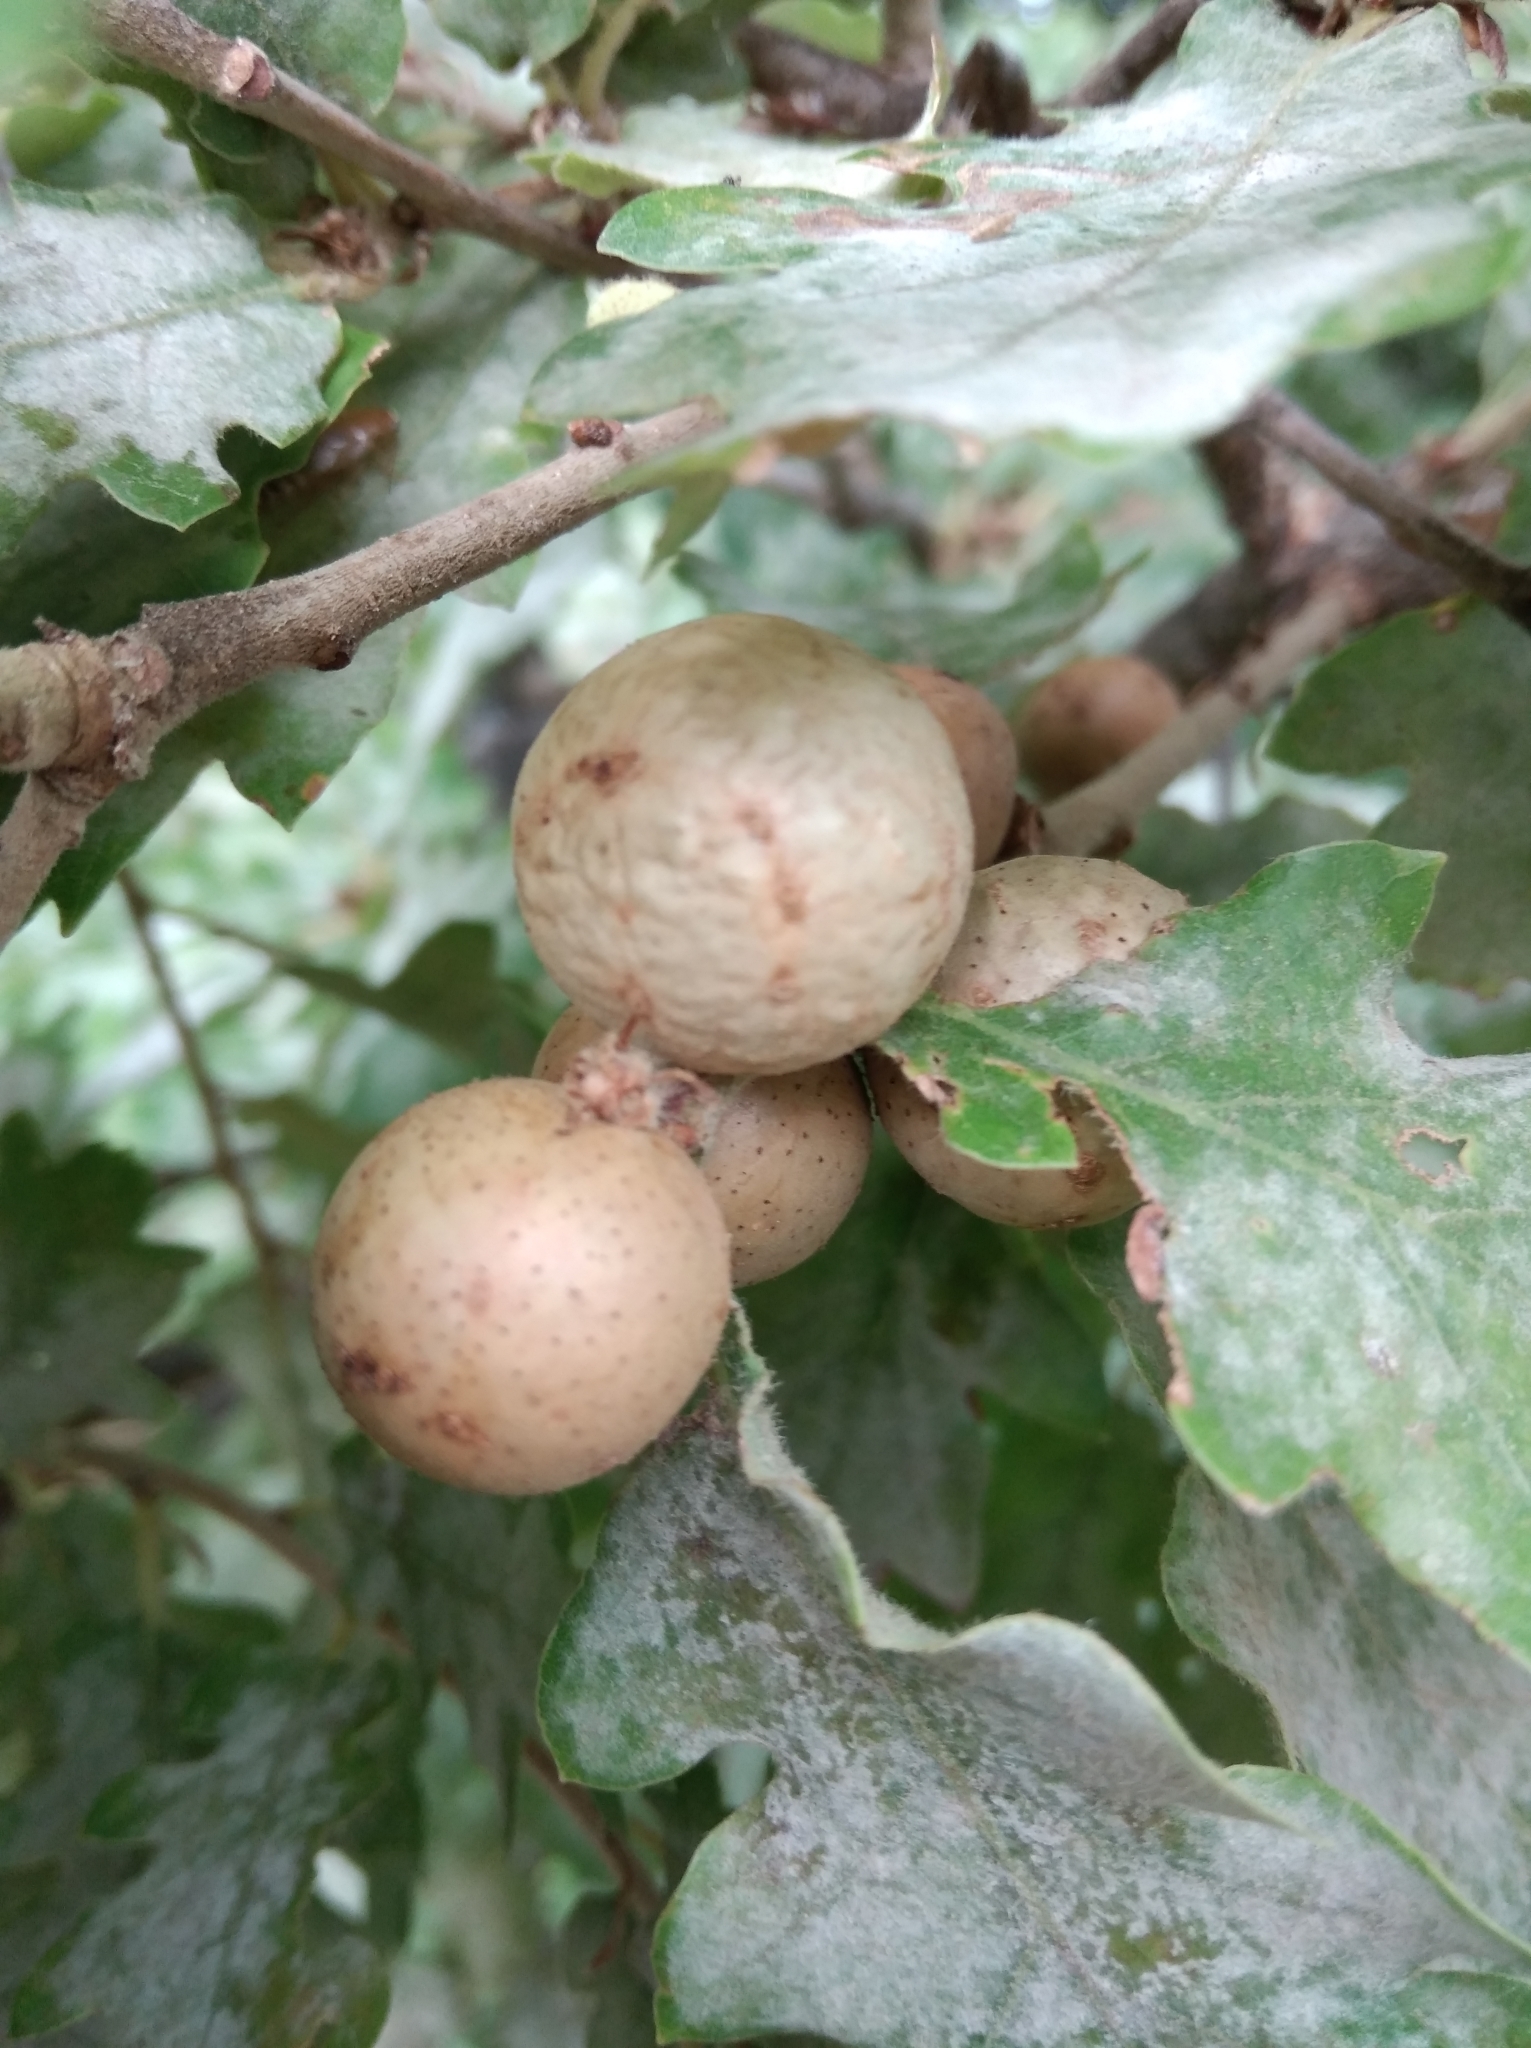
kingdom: Animalia
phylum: Arthropoda
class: Insecta
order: Hymenoptera
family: Cynipidae
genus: Andricus
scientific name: Andricus kollari
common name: Marble gall
